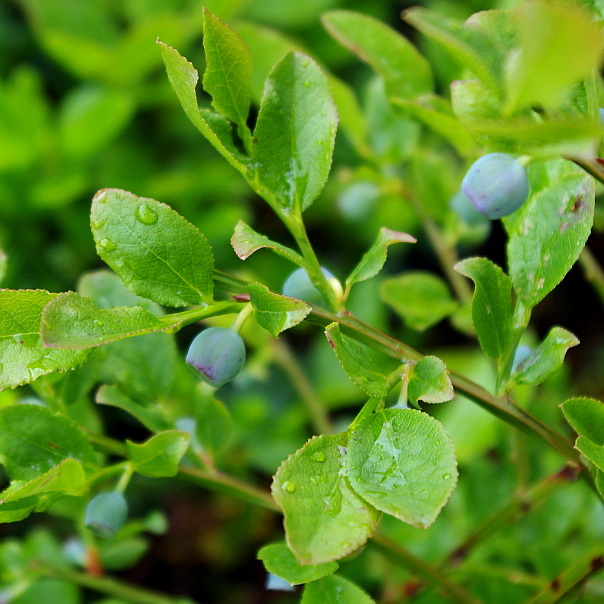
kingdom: Plantae
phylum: Tracheophyta
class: Magnoliopsida
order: Ericales
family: Ericaceae
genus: Vaccinium
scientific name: Vaccinium myrtillus
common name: Bilberry
